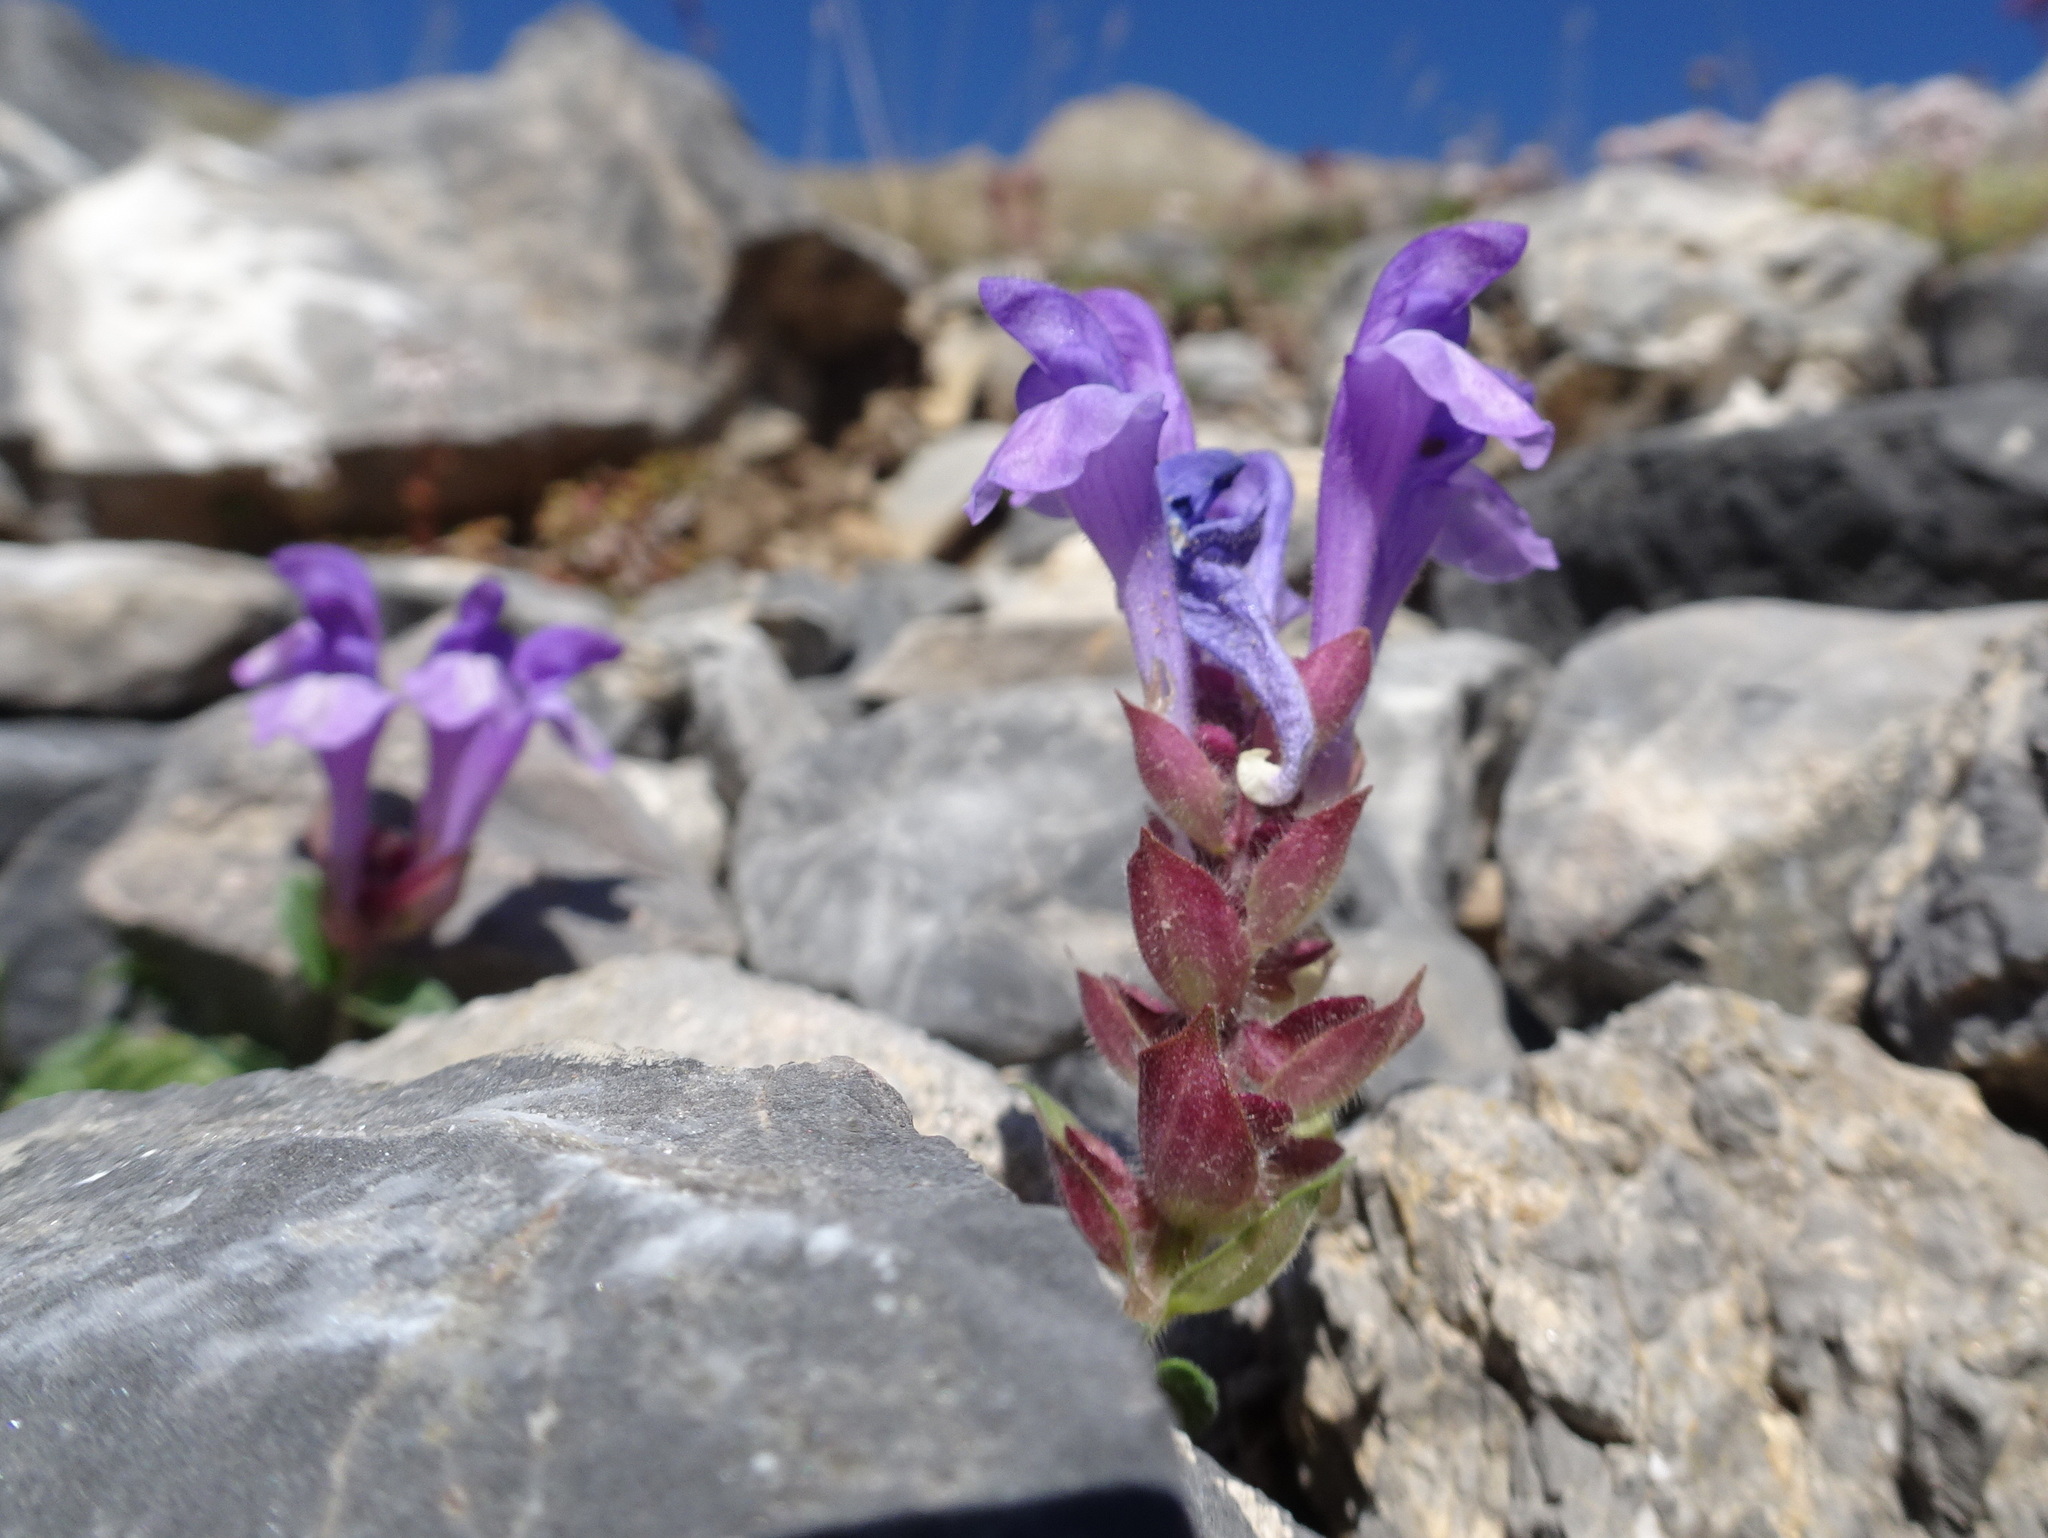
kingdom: Plantae
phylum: Tracheophyta
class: Magnoliopsida
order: Lamiales
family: Lamiaceae
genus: Scutellaria
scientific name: Scutellaria alpina
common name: Alpine scullcap
